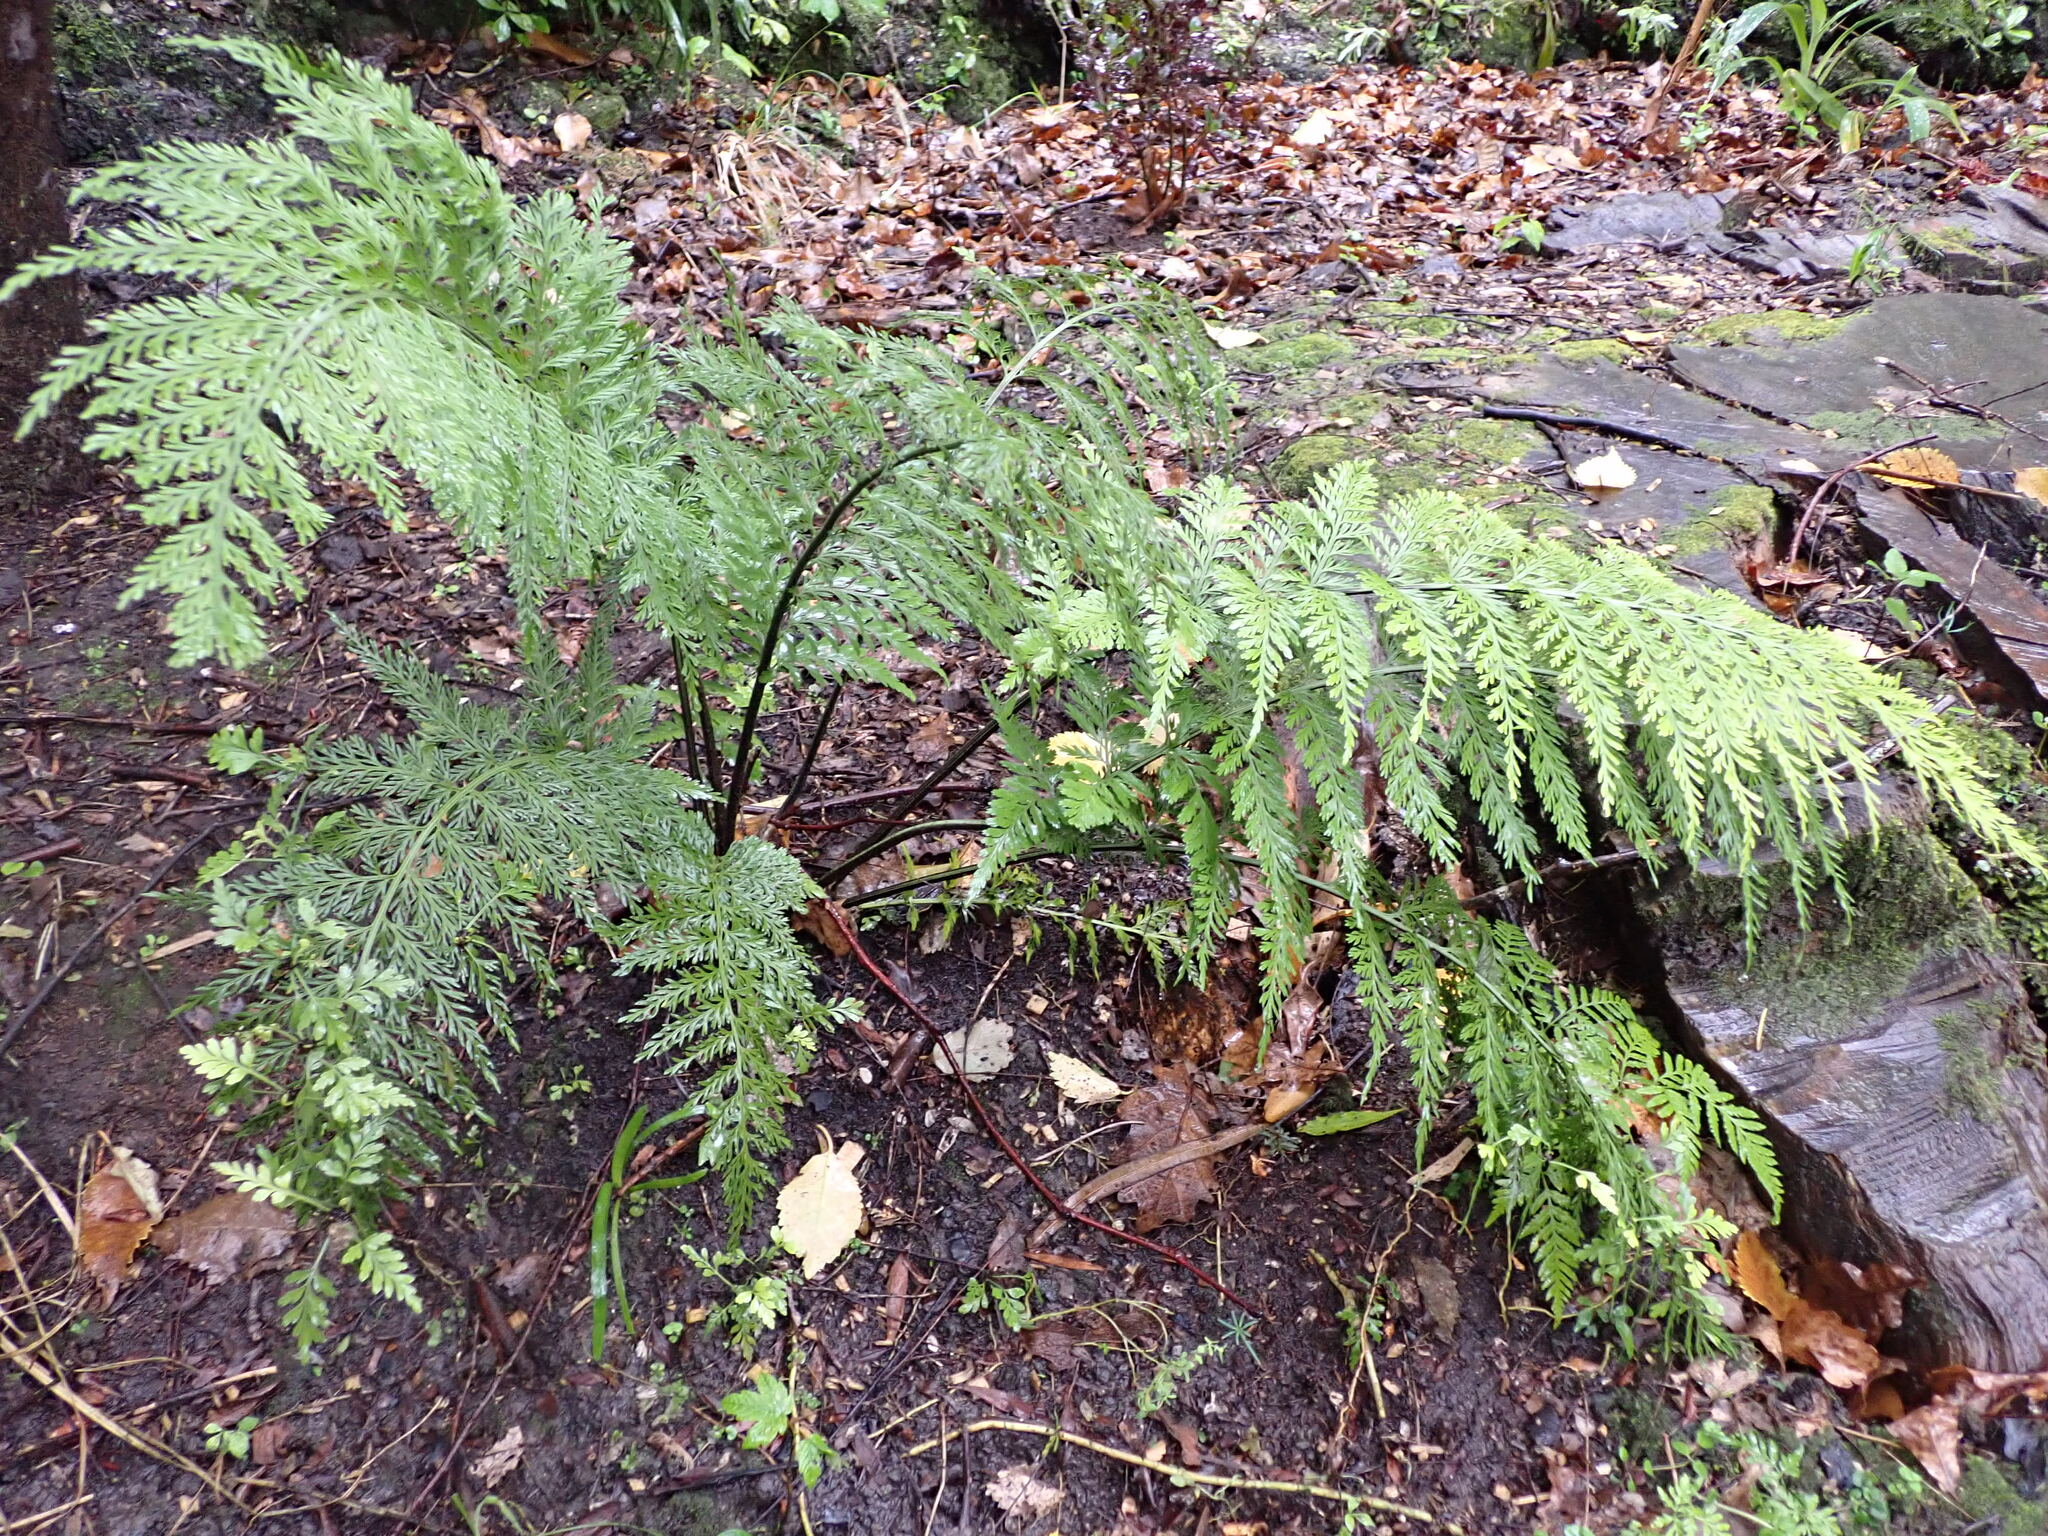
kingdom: Plantae
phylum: Tracheophyta
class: Polypodiopsida
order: Polypodiales
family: Aspleniaceae
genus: Asplenium
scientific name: Asplenium lucrosum
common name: False hen-and-chickens fern
